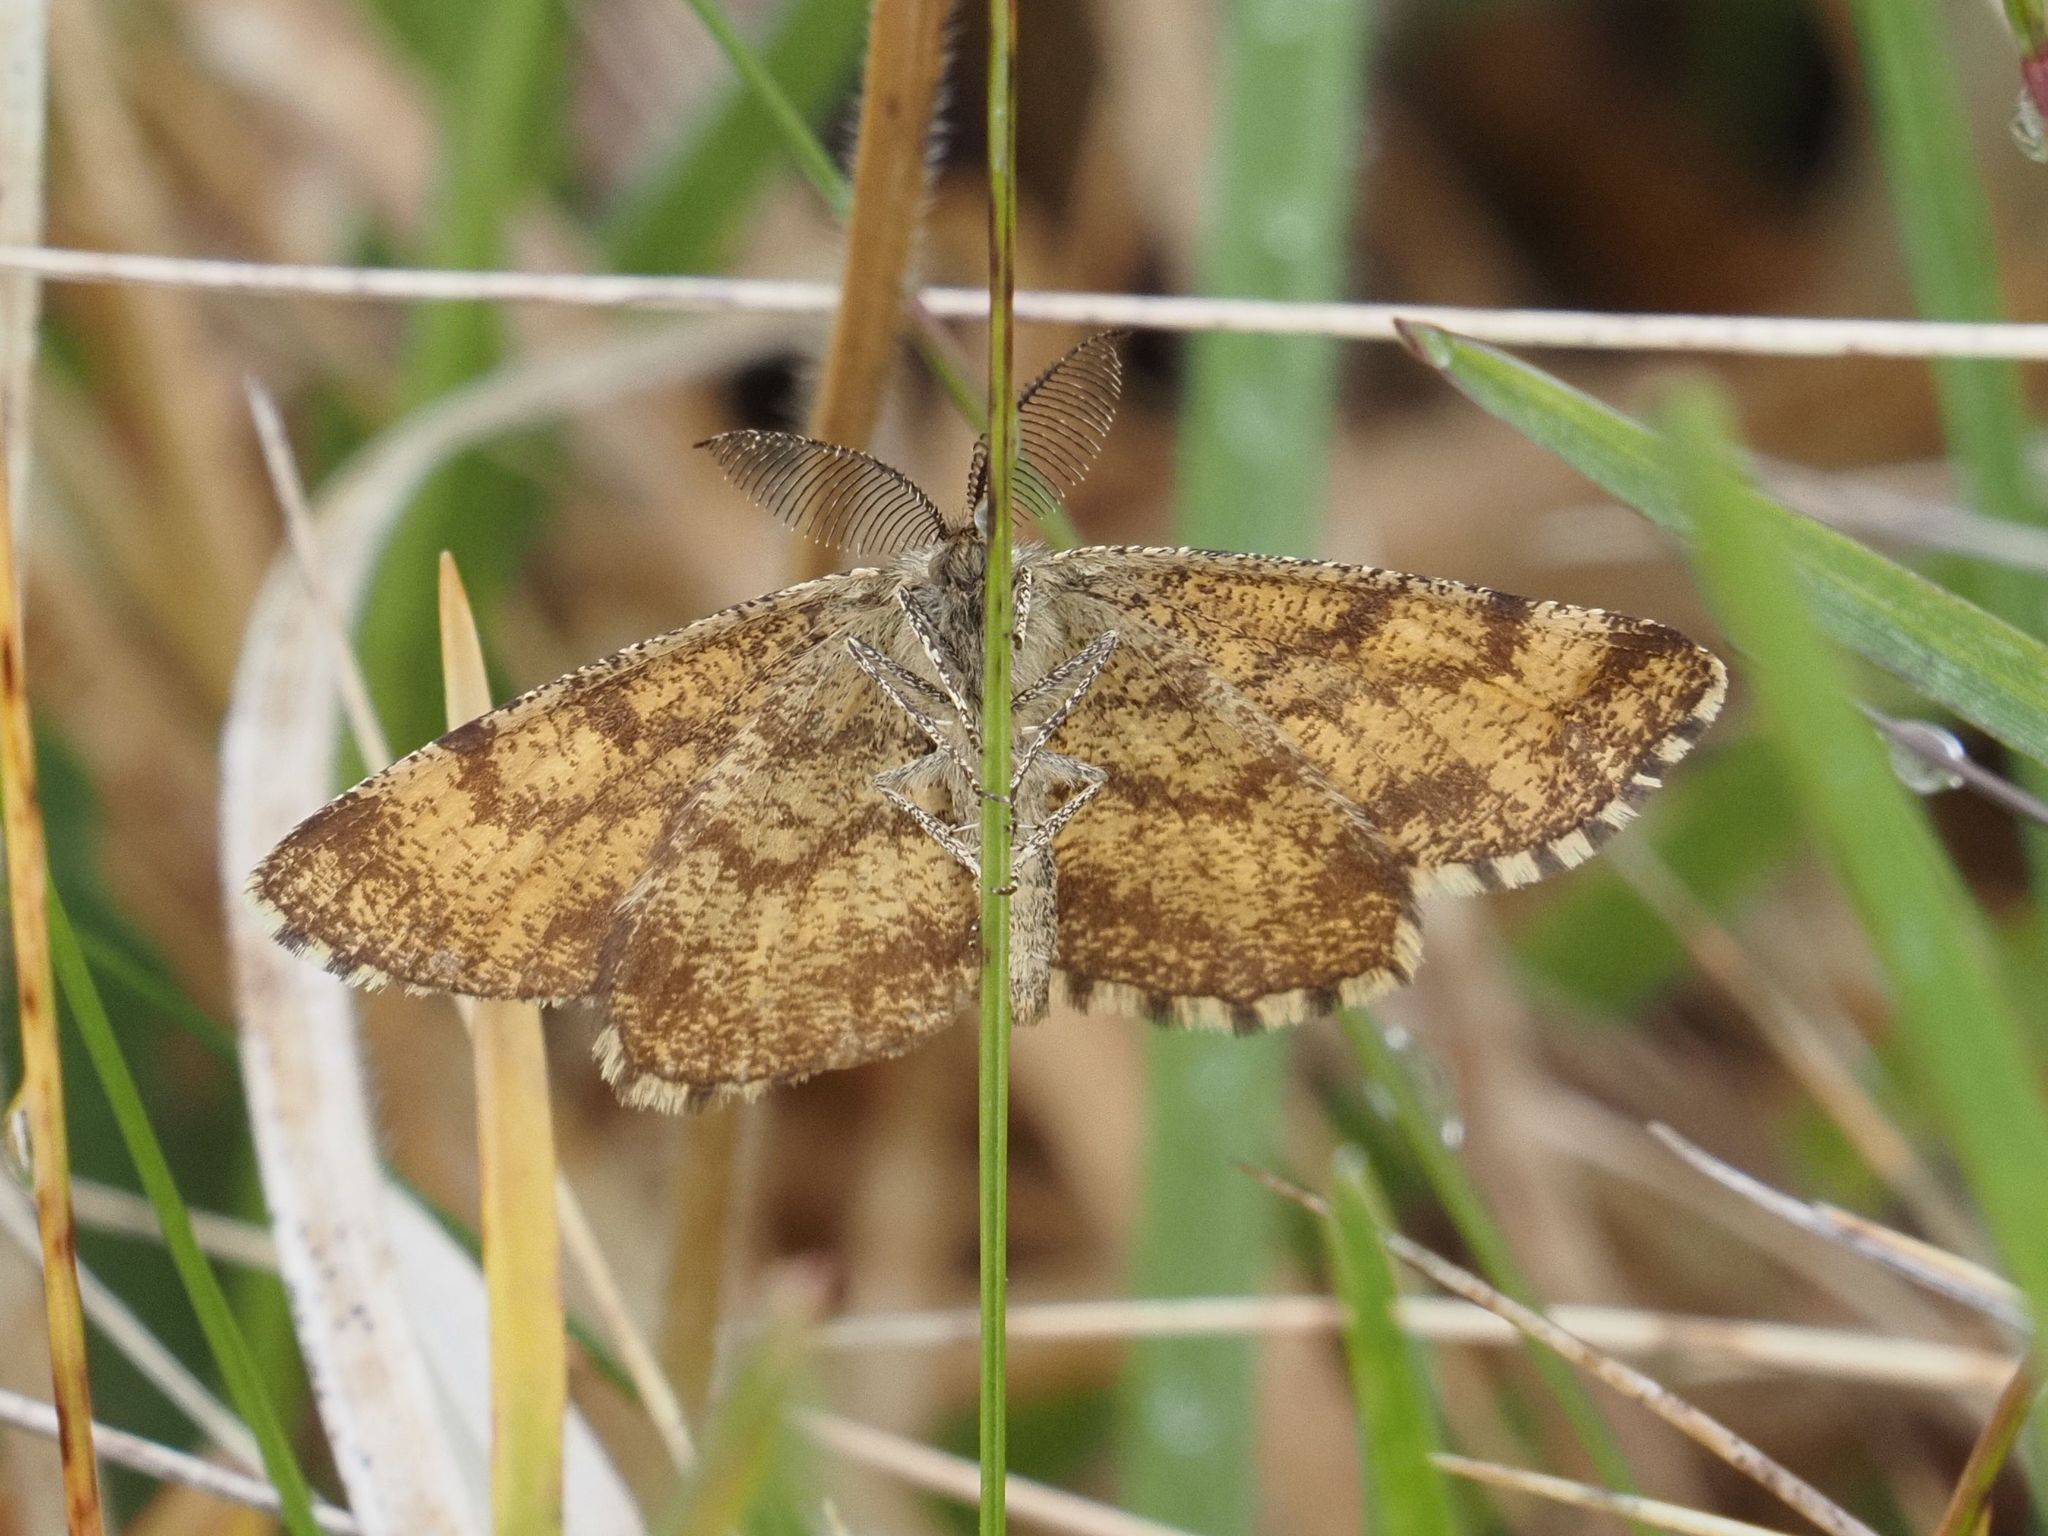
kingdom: Animalia
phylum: Arthropoda
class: Insecta
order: Lepidoptera
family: Geometridae
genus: Ematurga
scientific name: Ematurga atomaria
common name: Common heath
